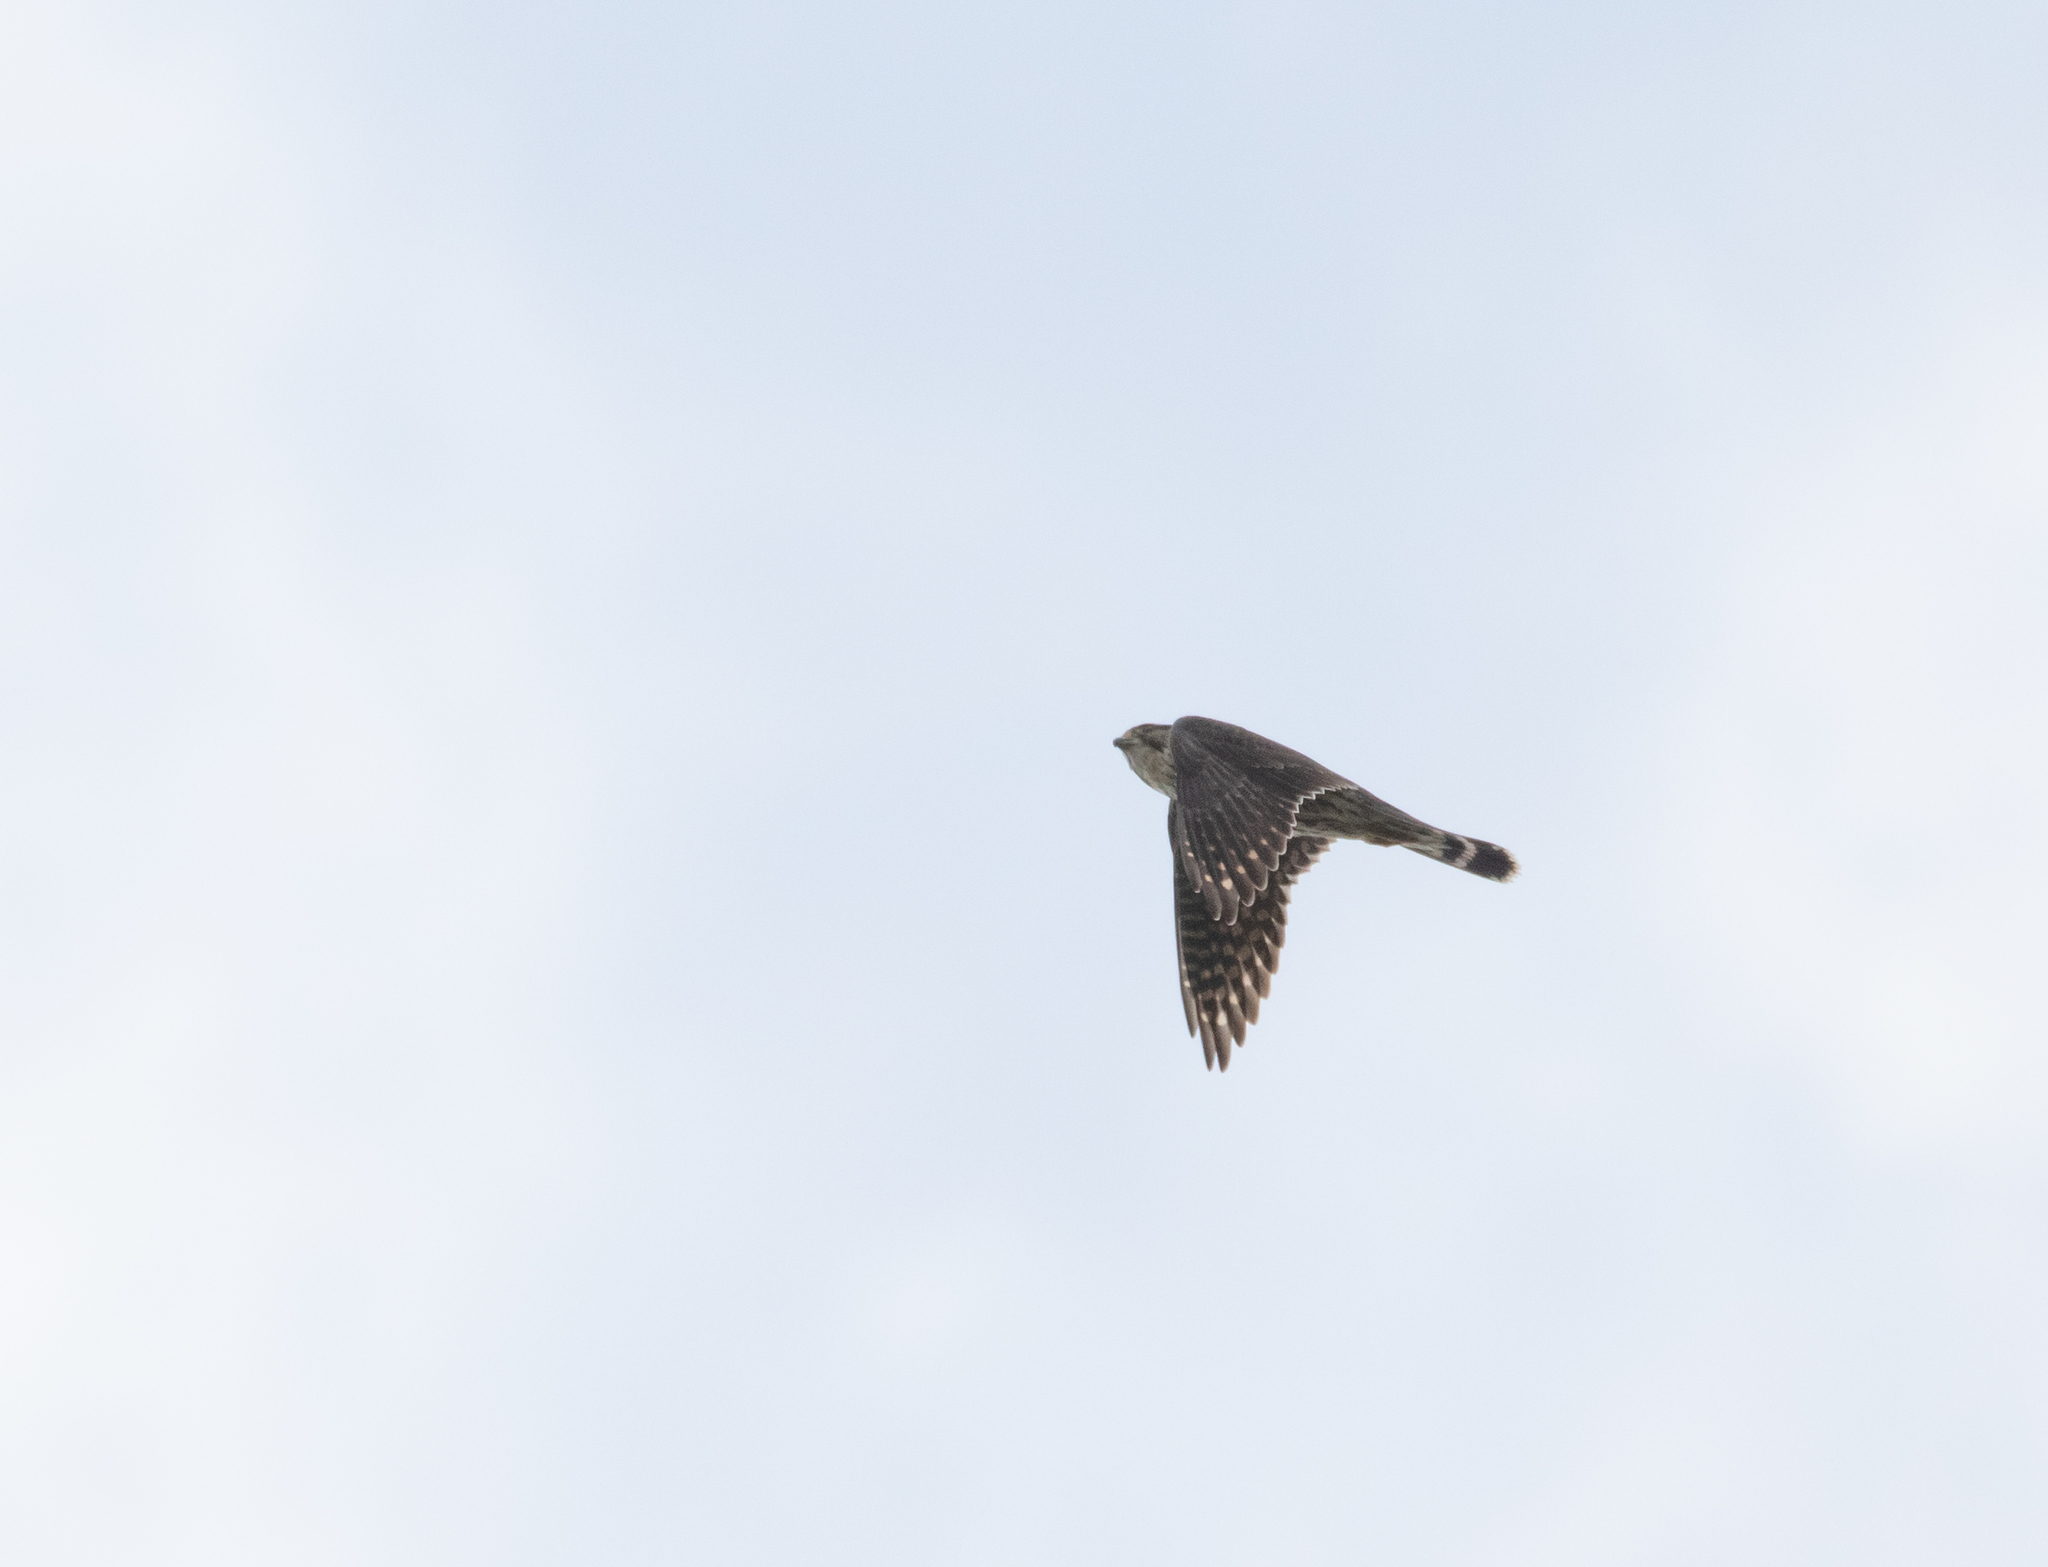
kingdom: Animalia
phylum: Chordata
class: Aves
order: Falconiformes
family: Falconidae
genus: Falco
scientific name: Falco columbarius
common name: Merlin
